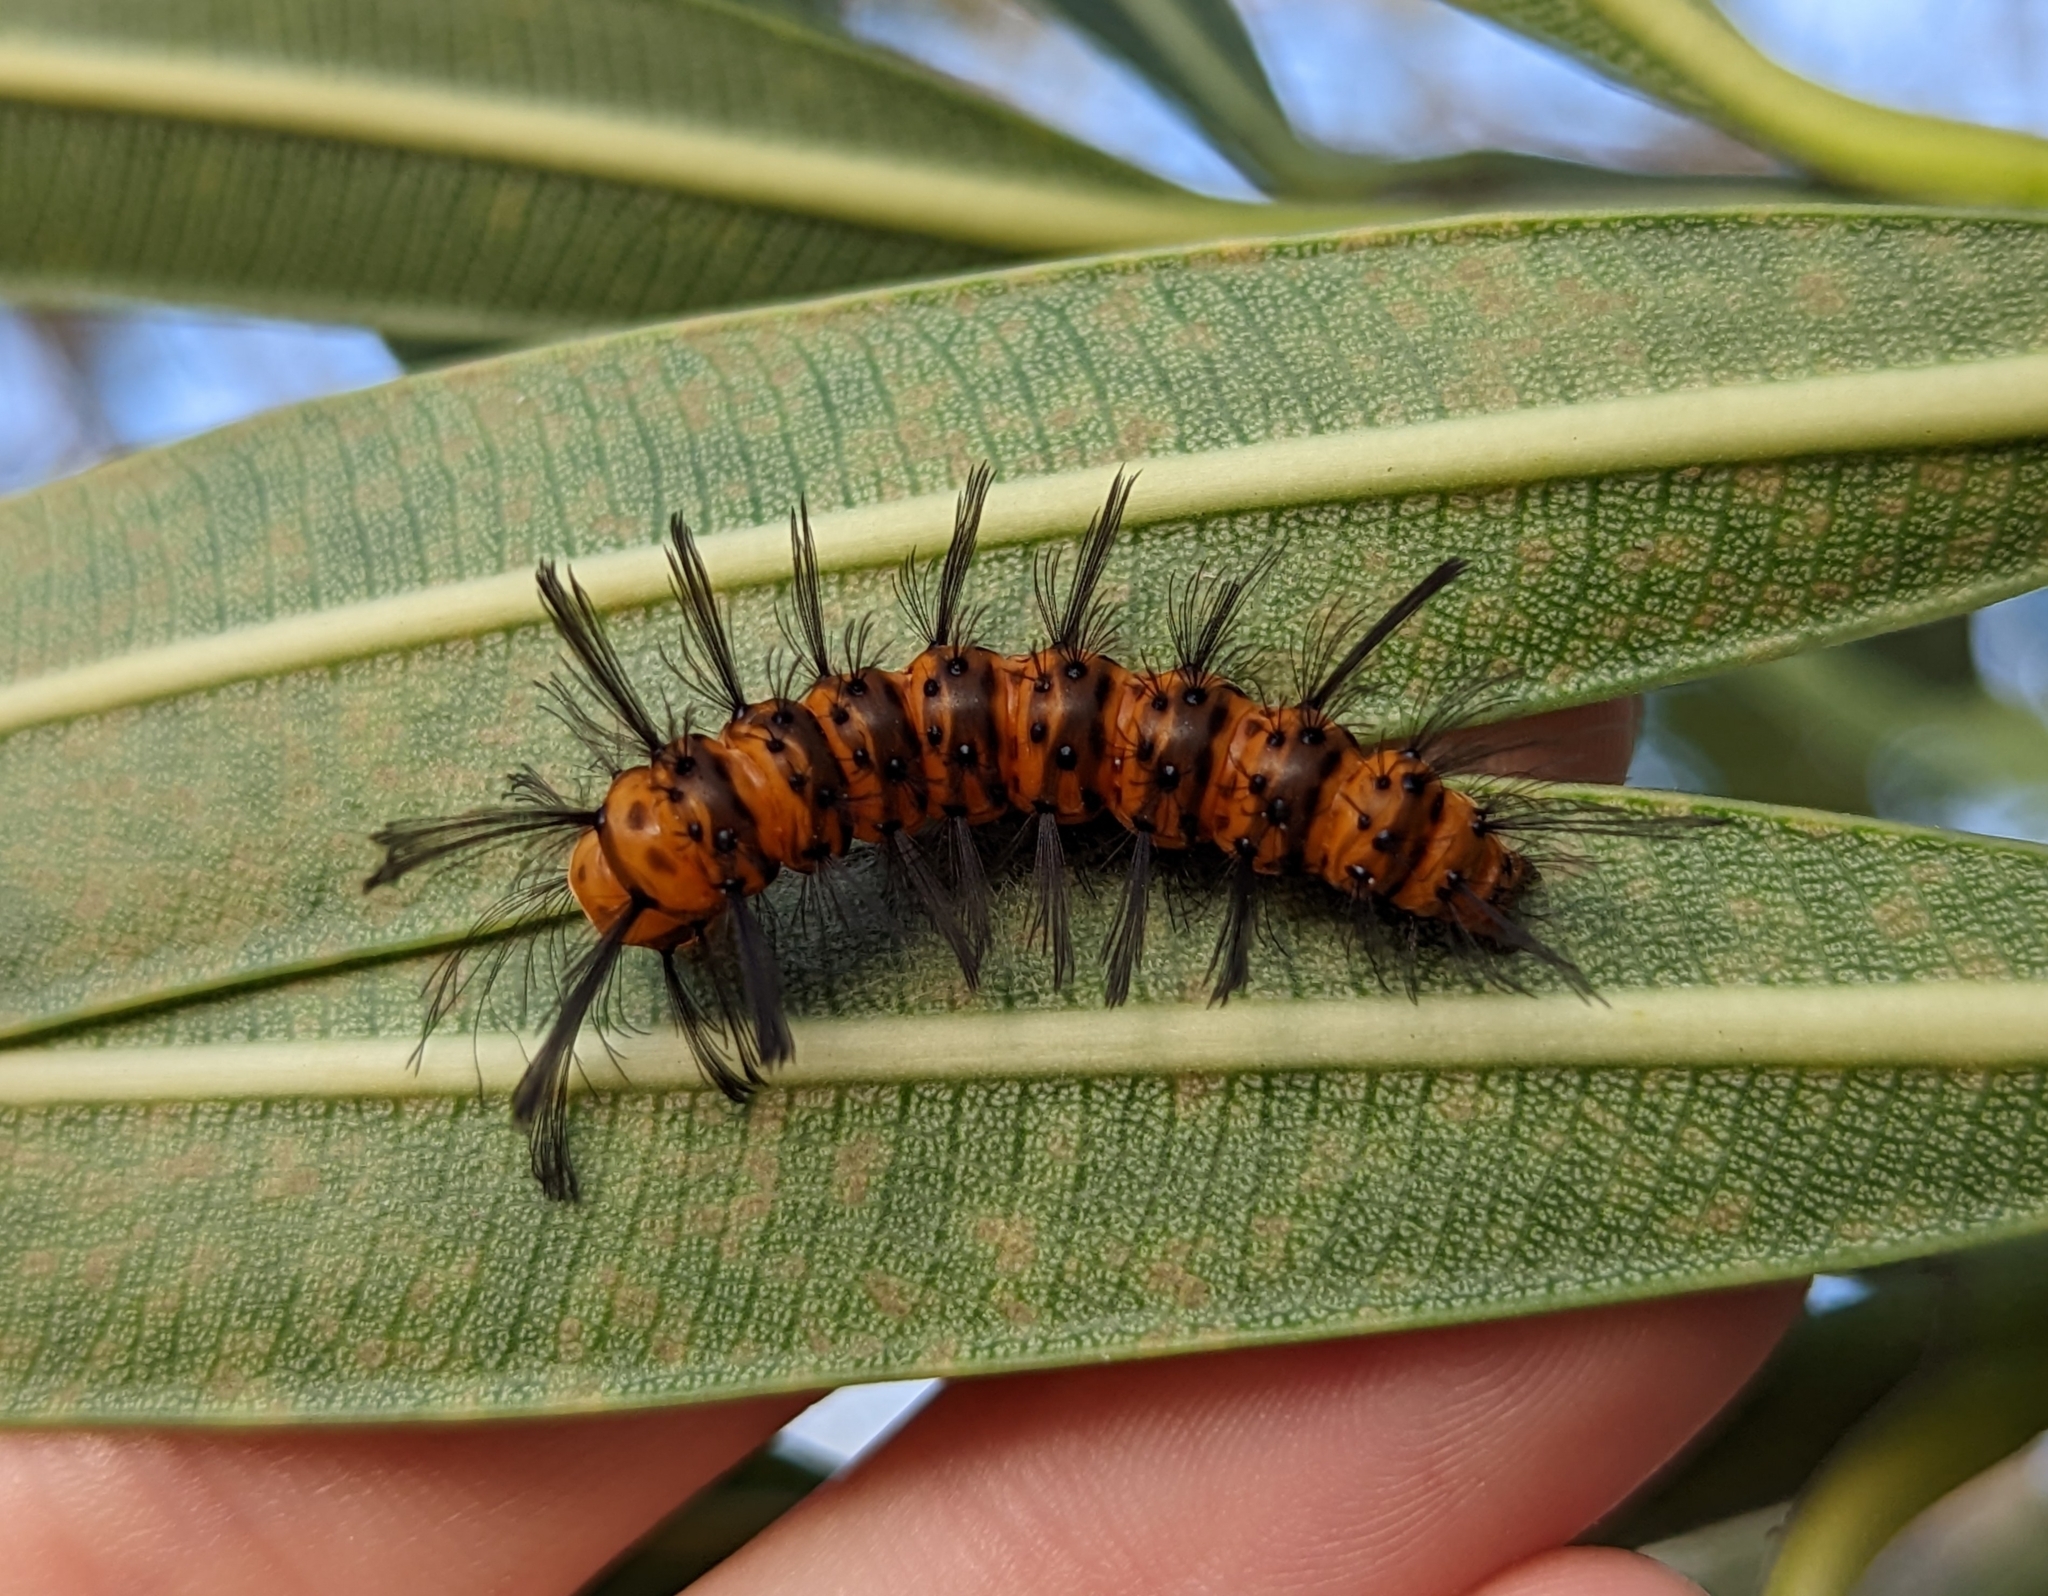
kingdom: Animalia
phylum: Arthropoda
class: Insecta
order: Lepidoptera
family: Erebidae
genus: Syntomeida
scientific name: Syntomeida epilais
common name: Polka-dot wasp moth
